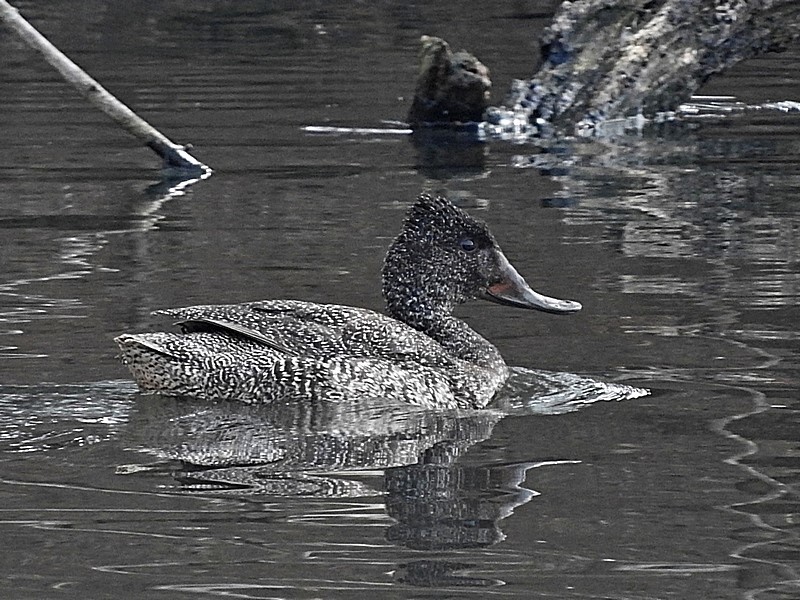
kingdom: Animalia
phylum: Chordata
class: Aves
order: Anseriformes
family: Anatidae
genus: Stictonetta
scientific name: Stictonetta naevosa
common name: Freckled duck
